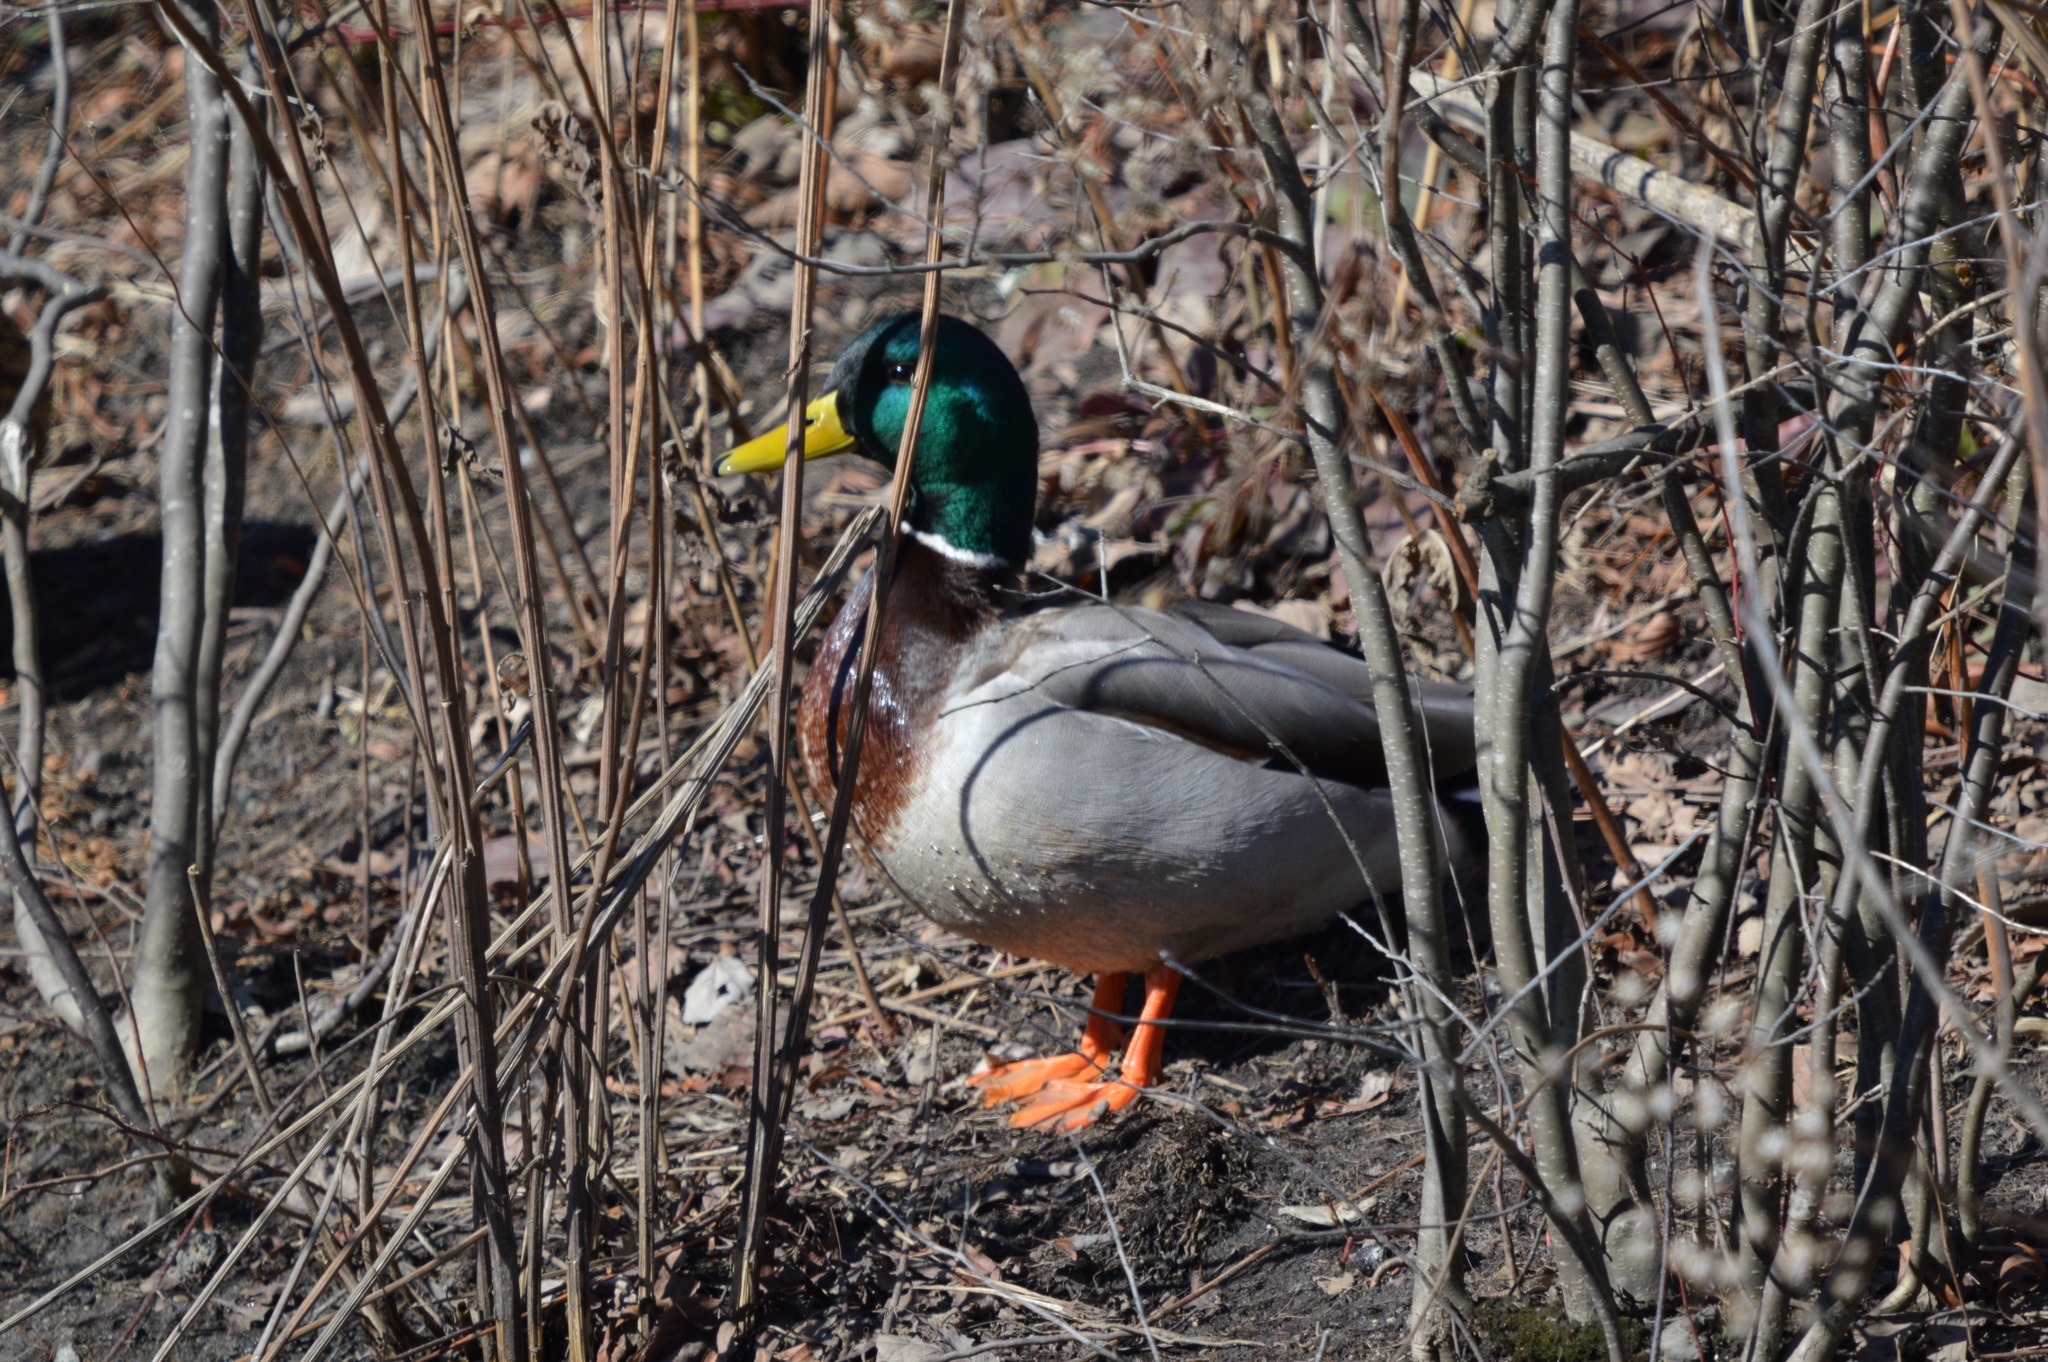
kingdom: Animalia
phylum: Chordata
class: Aves
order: Anseriformes
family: Anatidae
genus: Anas
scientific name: Anas platyrhynchos
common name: Mallard
